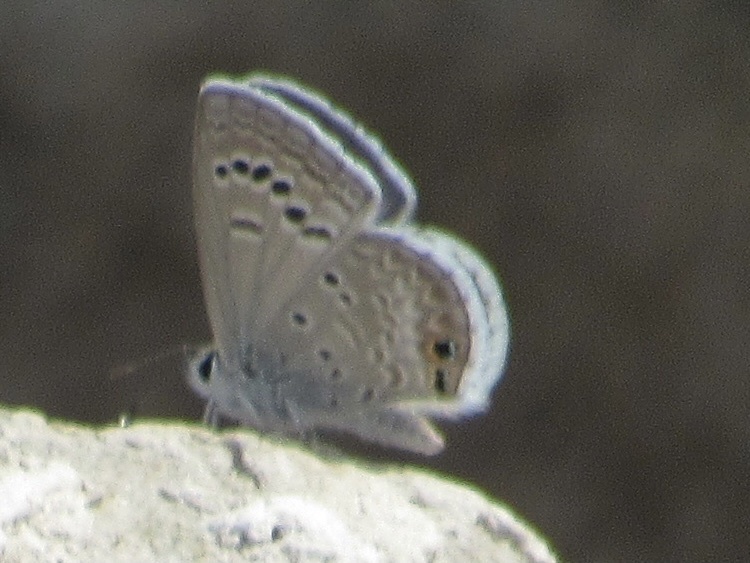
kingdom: Animalia
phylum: Arthropoda
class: Insecta
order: Lepidoptera
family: Lycaenidae
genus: Echinargus
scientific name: Echinargus isola
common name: Reakirt's blue
